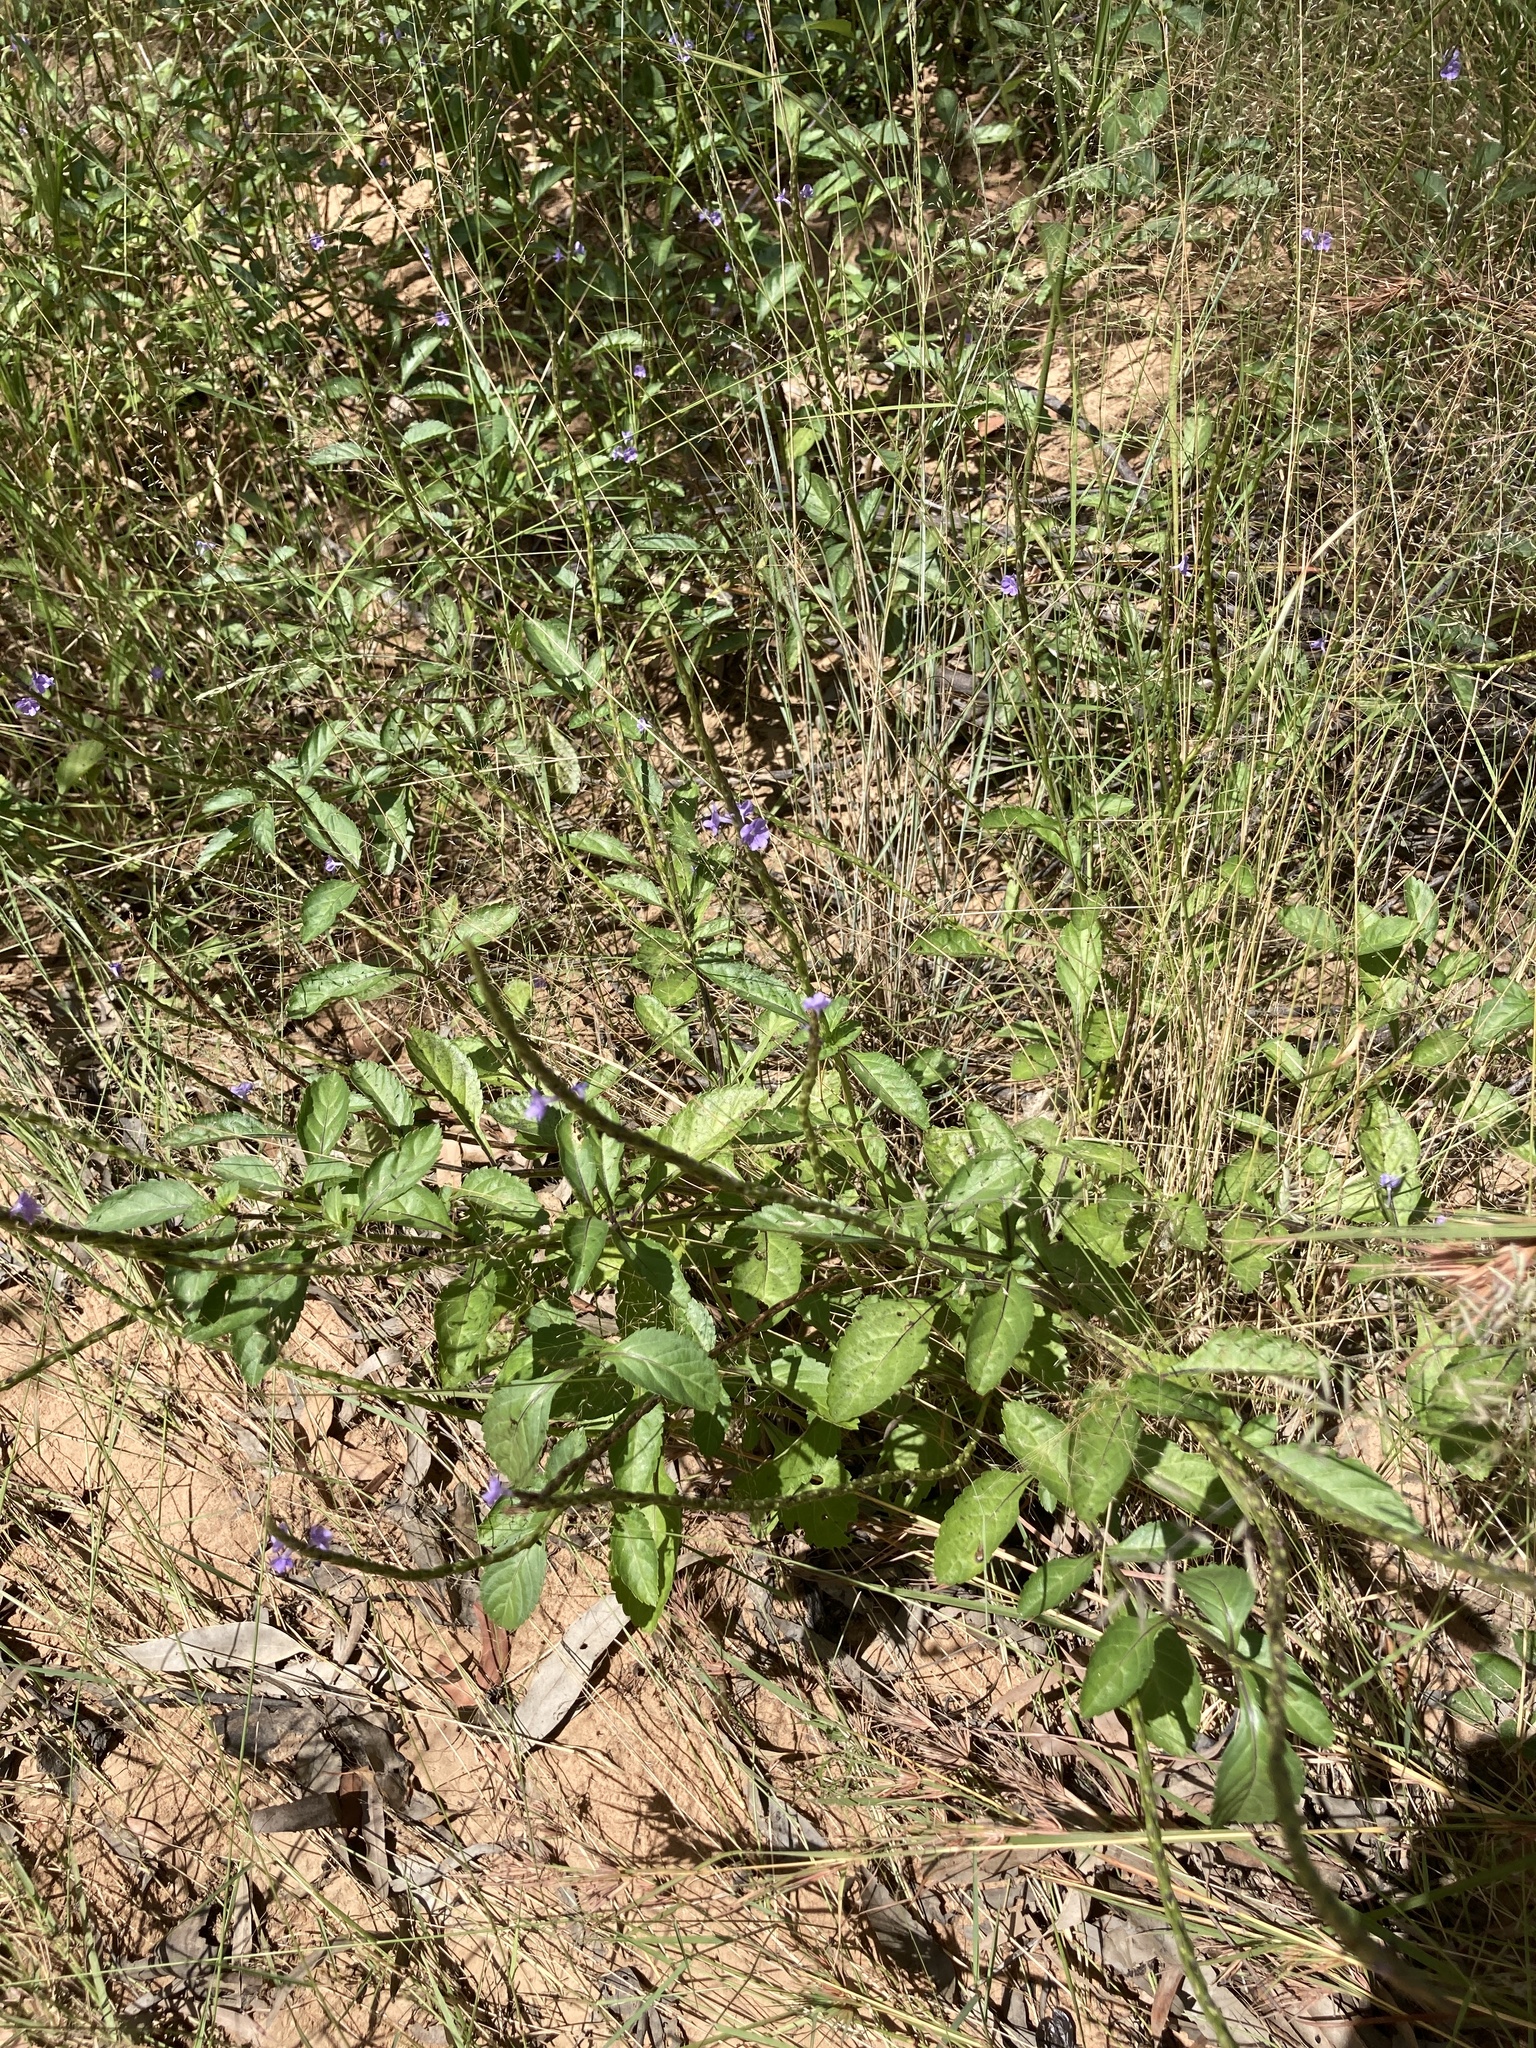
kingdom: Plantae
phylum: Tracheophyta
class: Magnoliopsida
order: Lamiales
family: Verbenaceae
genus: Stachytarpheta
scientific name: Stachytarpheta jamaicensis
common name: Light-blue snakeweed
